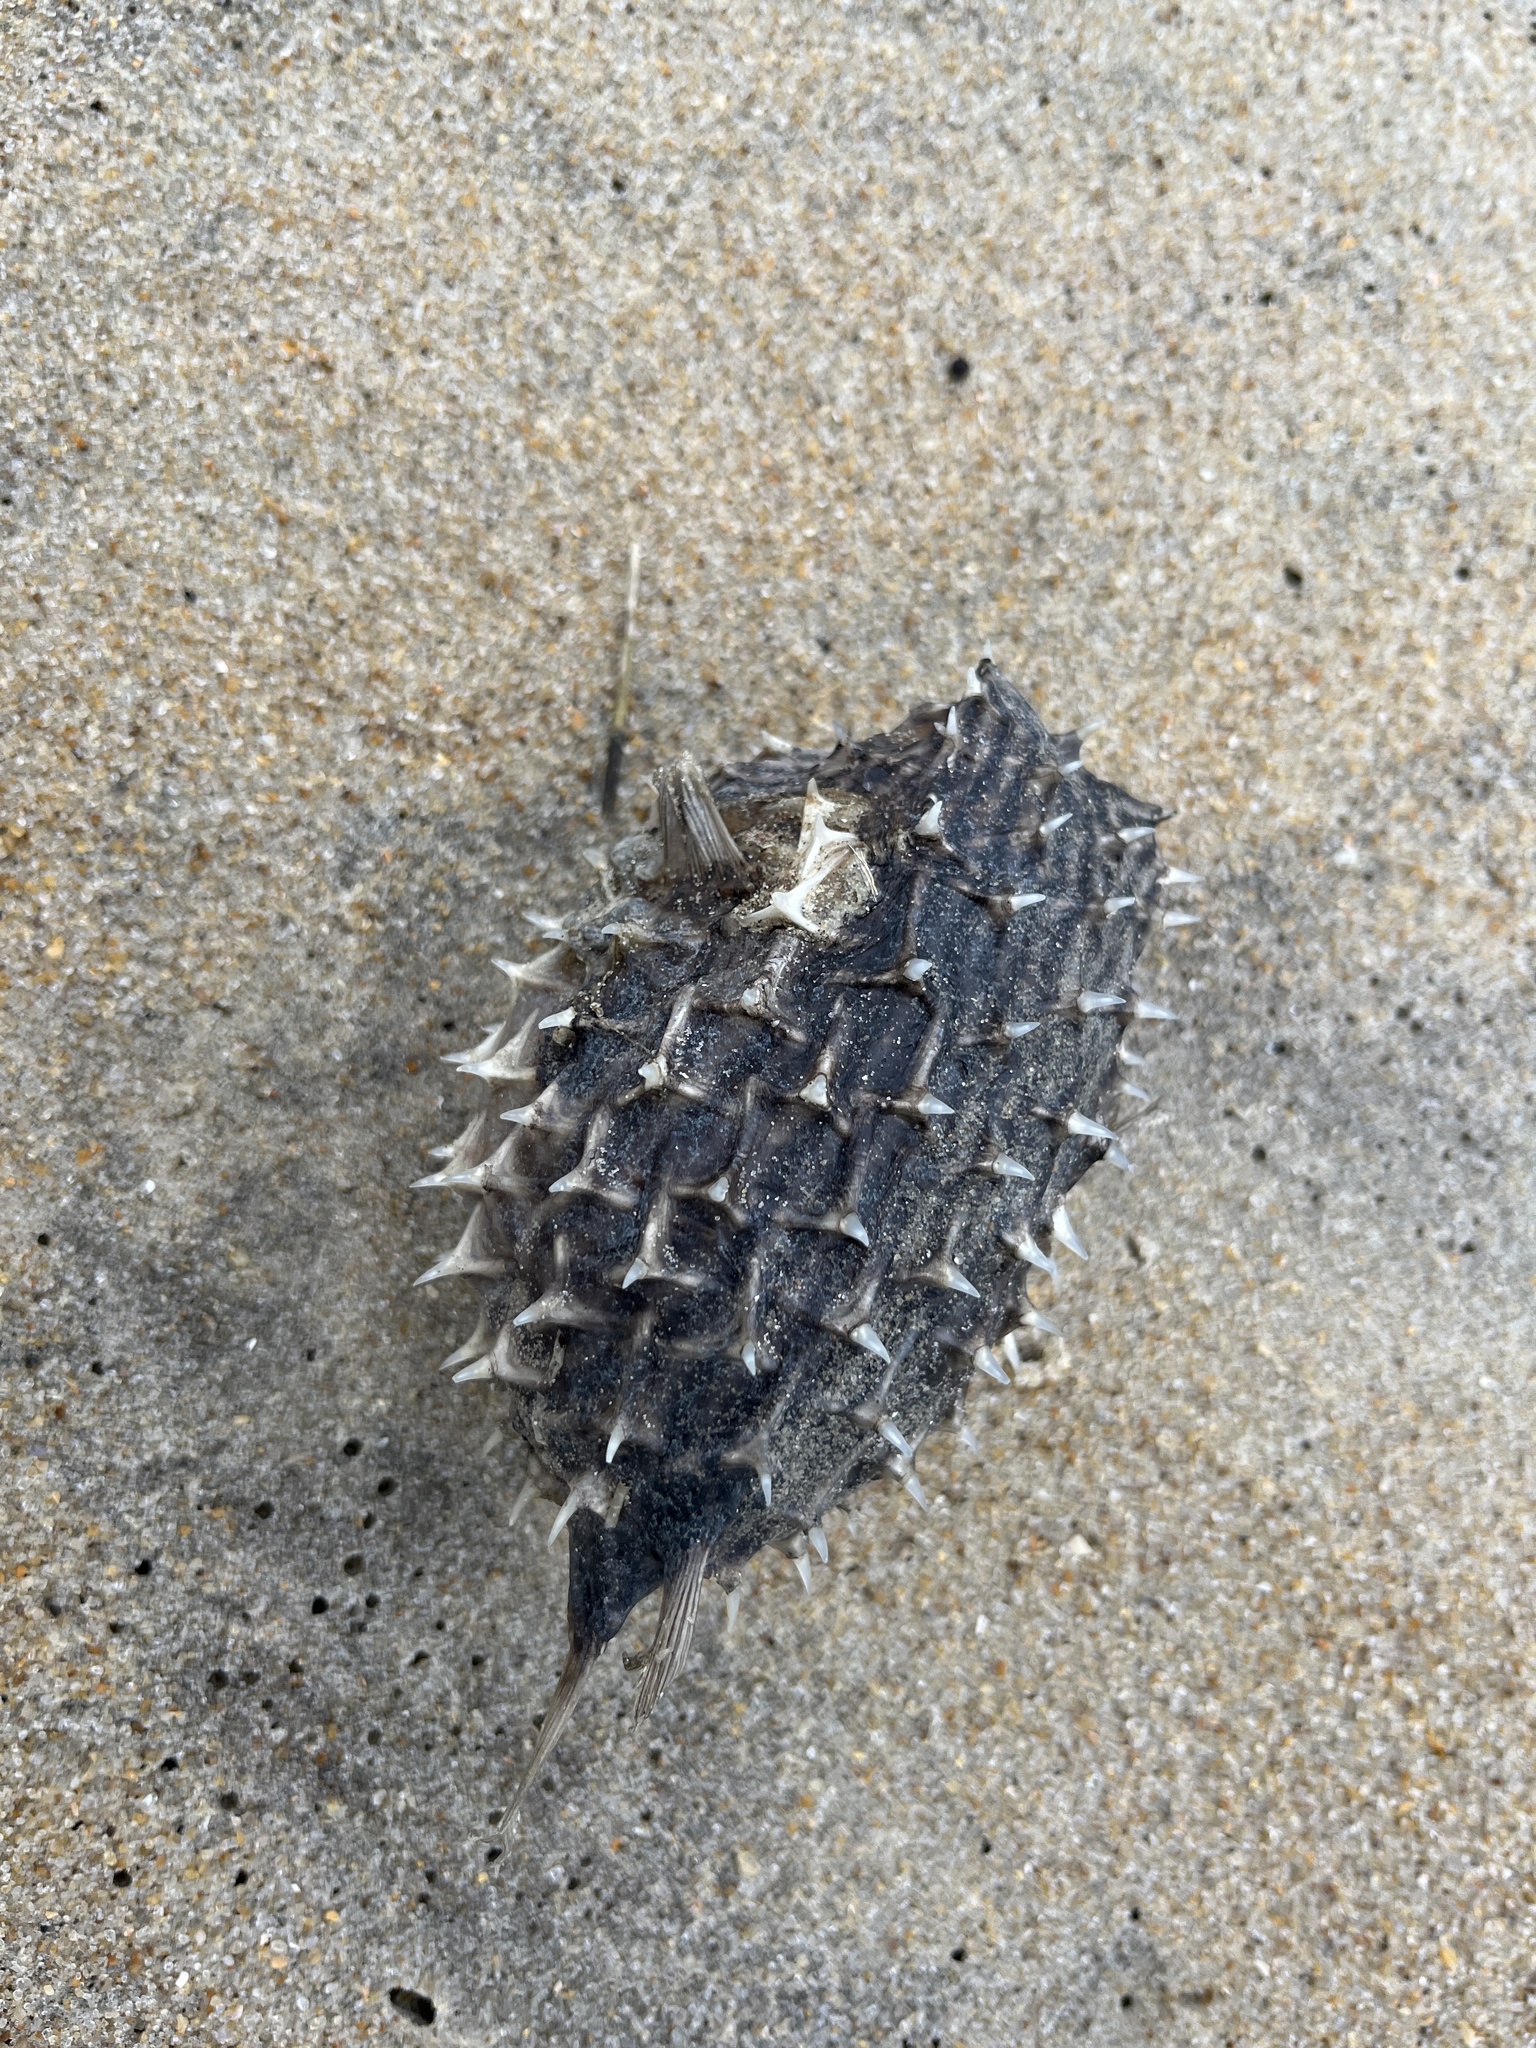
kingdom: Animalia
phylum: Chordata
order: Tetraodontiformes
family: Diodontidae
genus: Chilomycterus
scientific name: Chilomycterus schoepfii
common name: Striped burrfish
